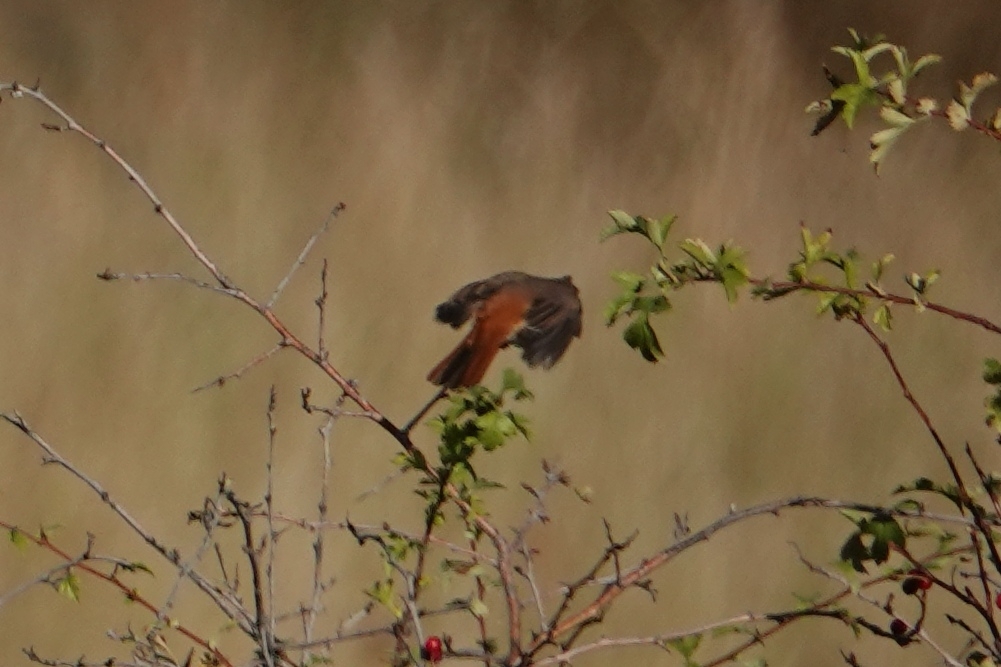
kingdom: Animalia
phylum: Chordata
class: Aves
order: Passeriformes
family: Muscicapidae
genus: Phoenicurus
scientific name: Phoenicurus phoenicurus
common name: Common redstart
